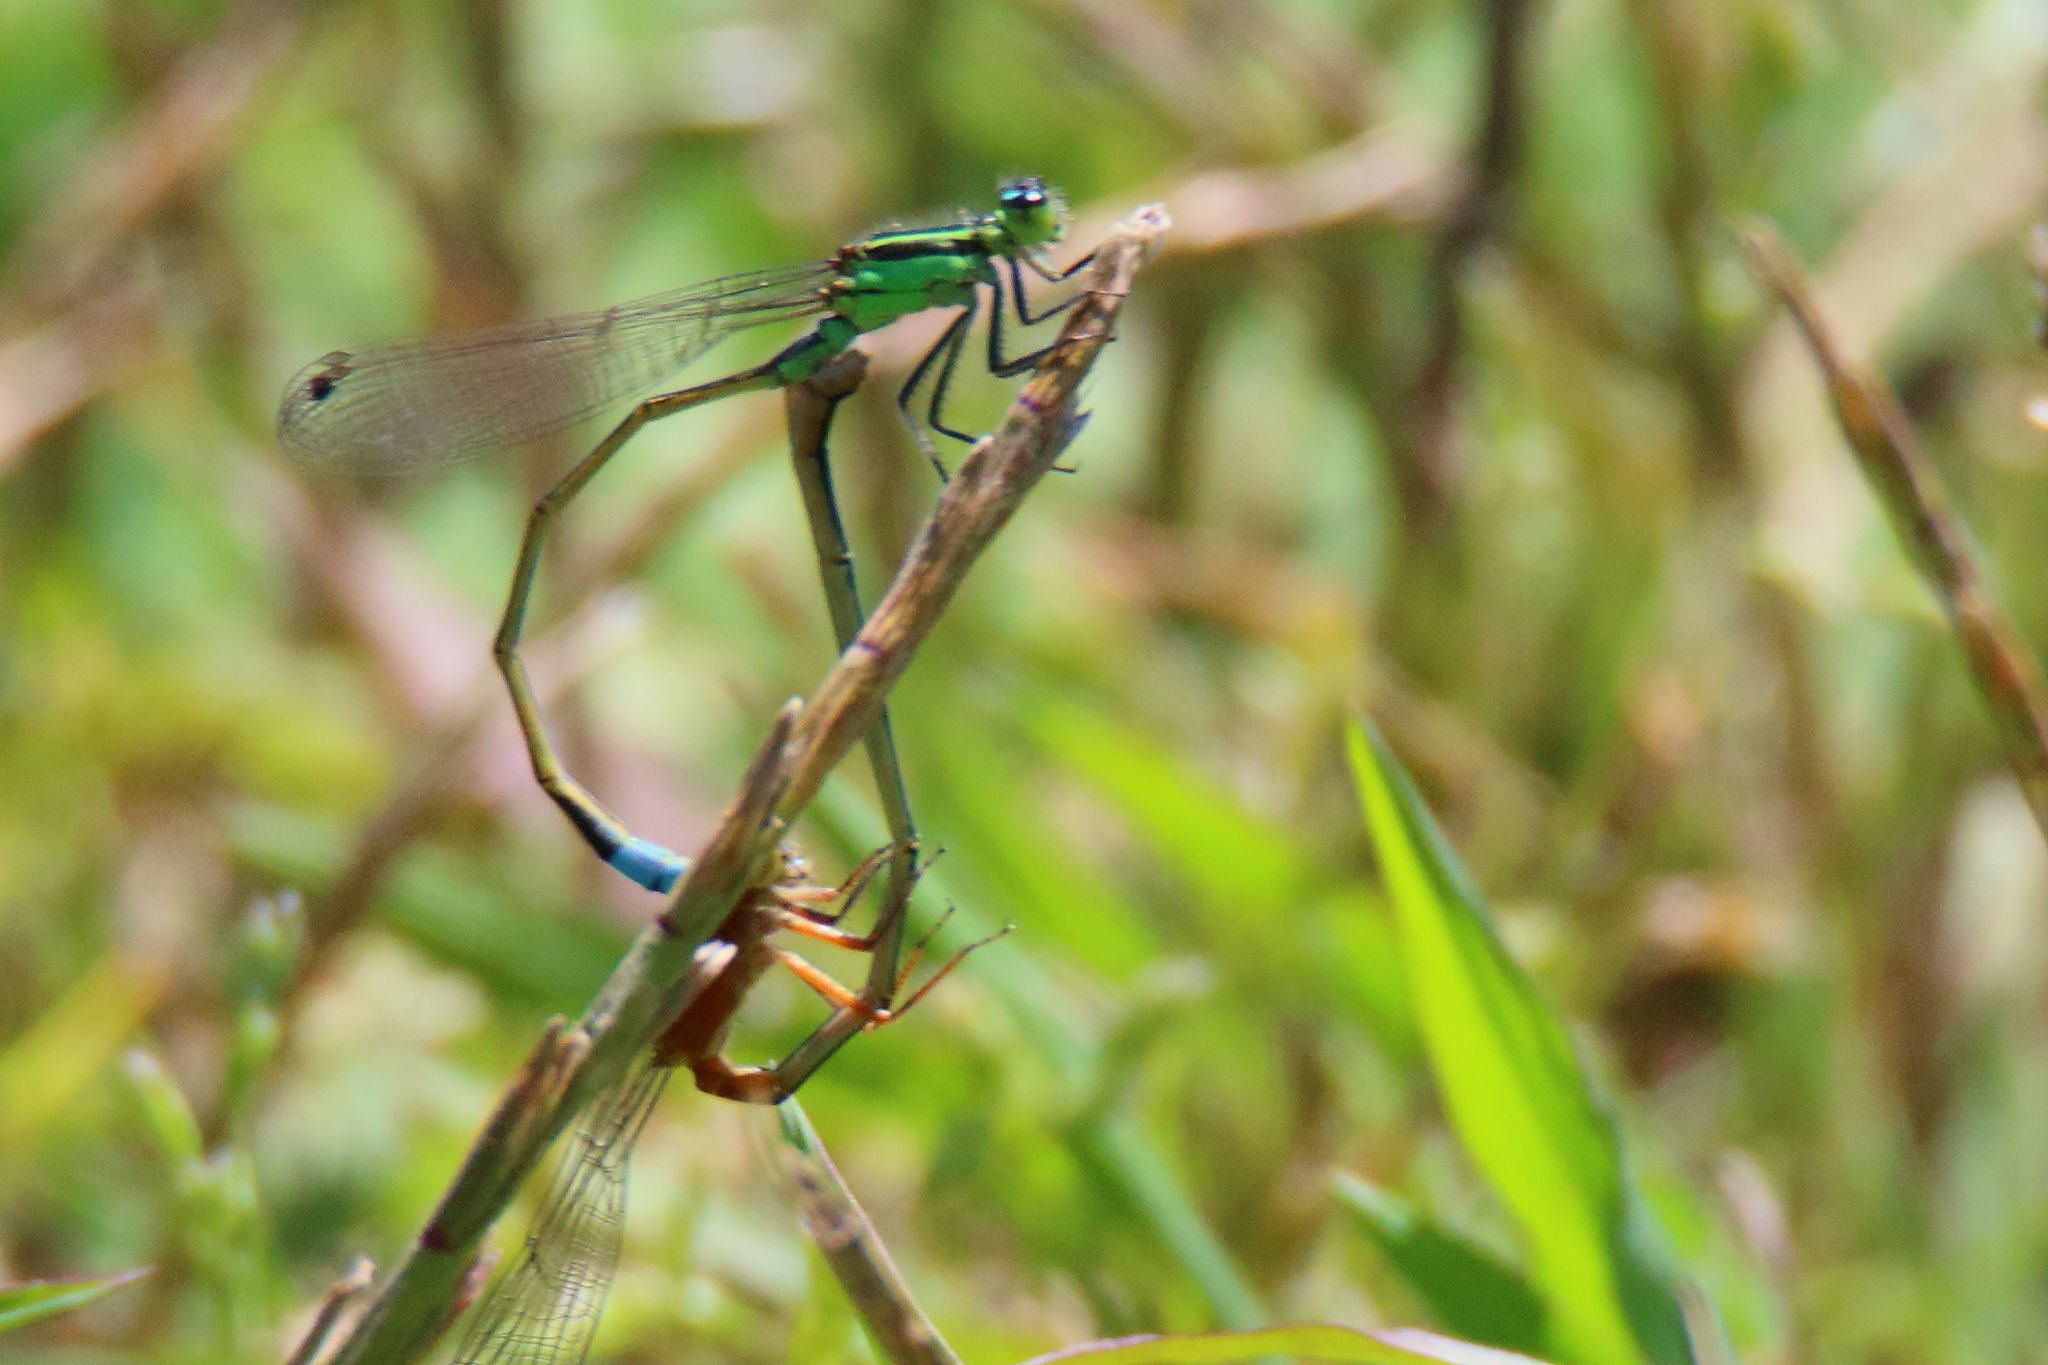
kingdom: Animalia
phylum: Arthropoda
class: Insecta
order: Odonata
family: Coenagrionidae
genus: Ischnura
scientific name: Ischnura ramburii
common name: Rambur's forktail
